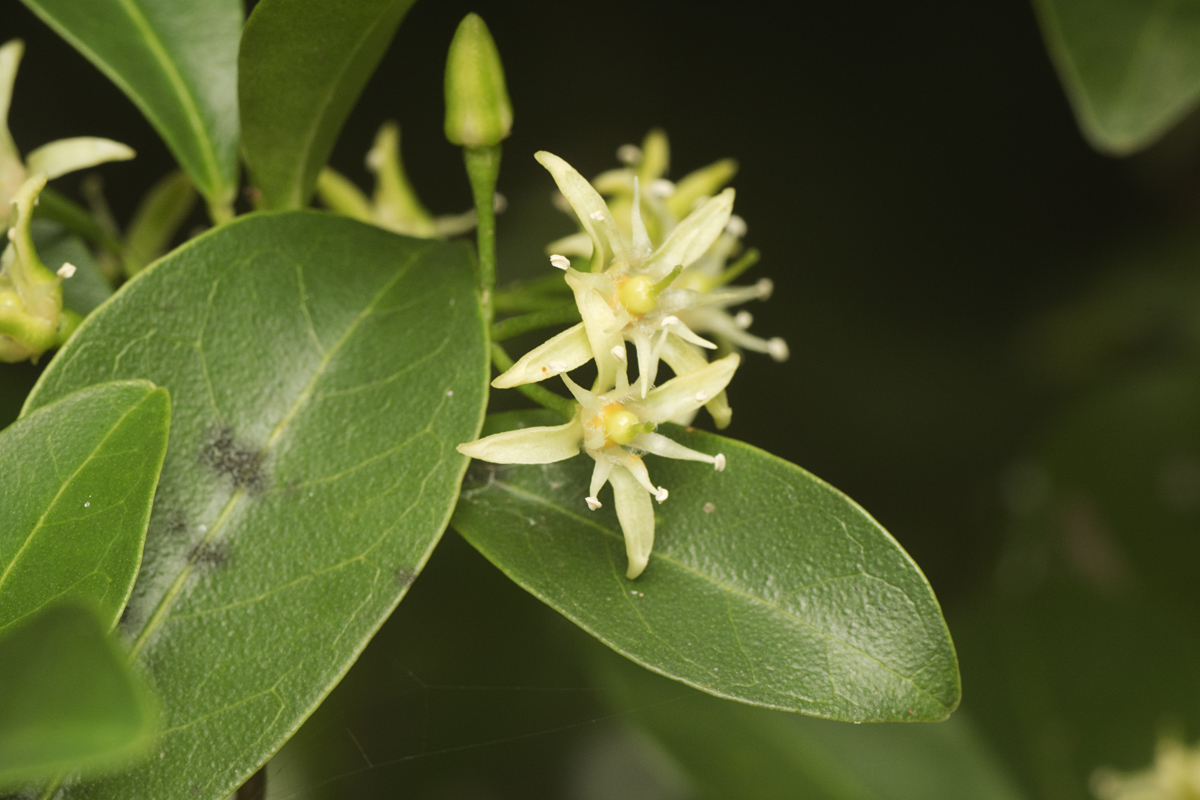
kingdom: Plantae
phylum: Tracheophyta
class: Magnoliopsida
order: Sapindales
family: Rutaceae
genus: Acronychia
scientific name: Acronychia laevis
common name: Hard aspen
